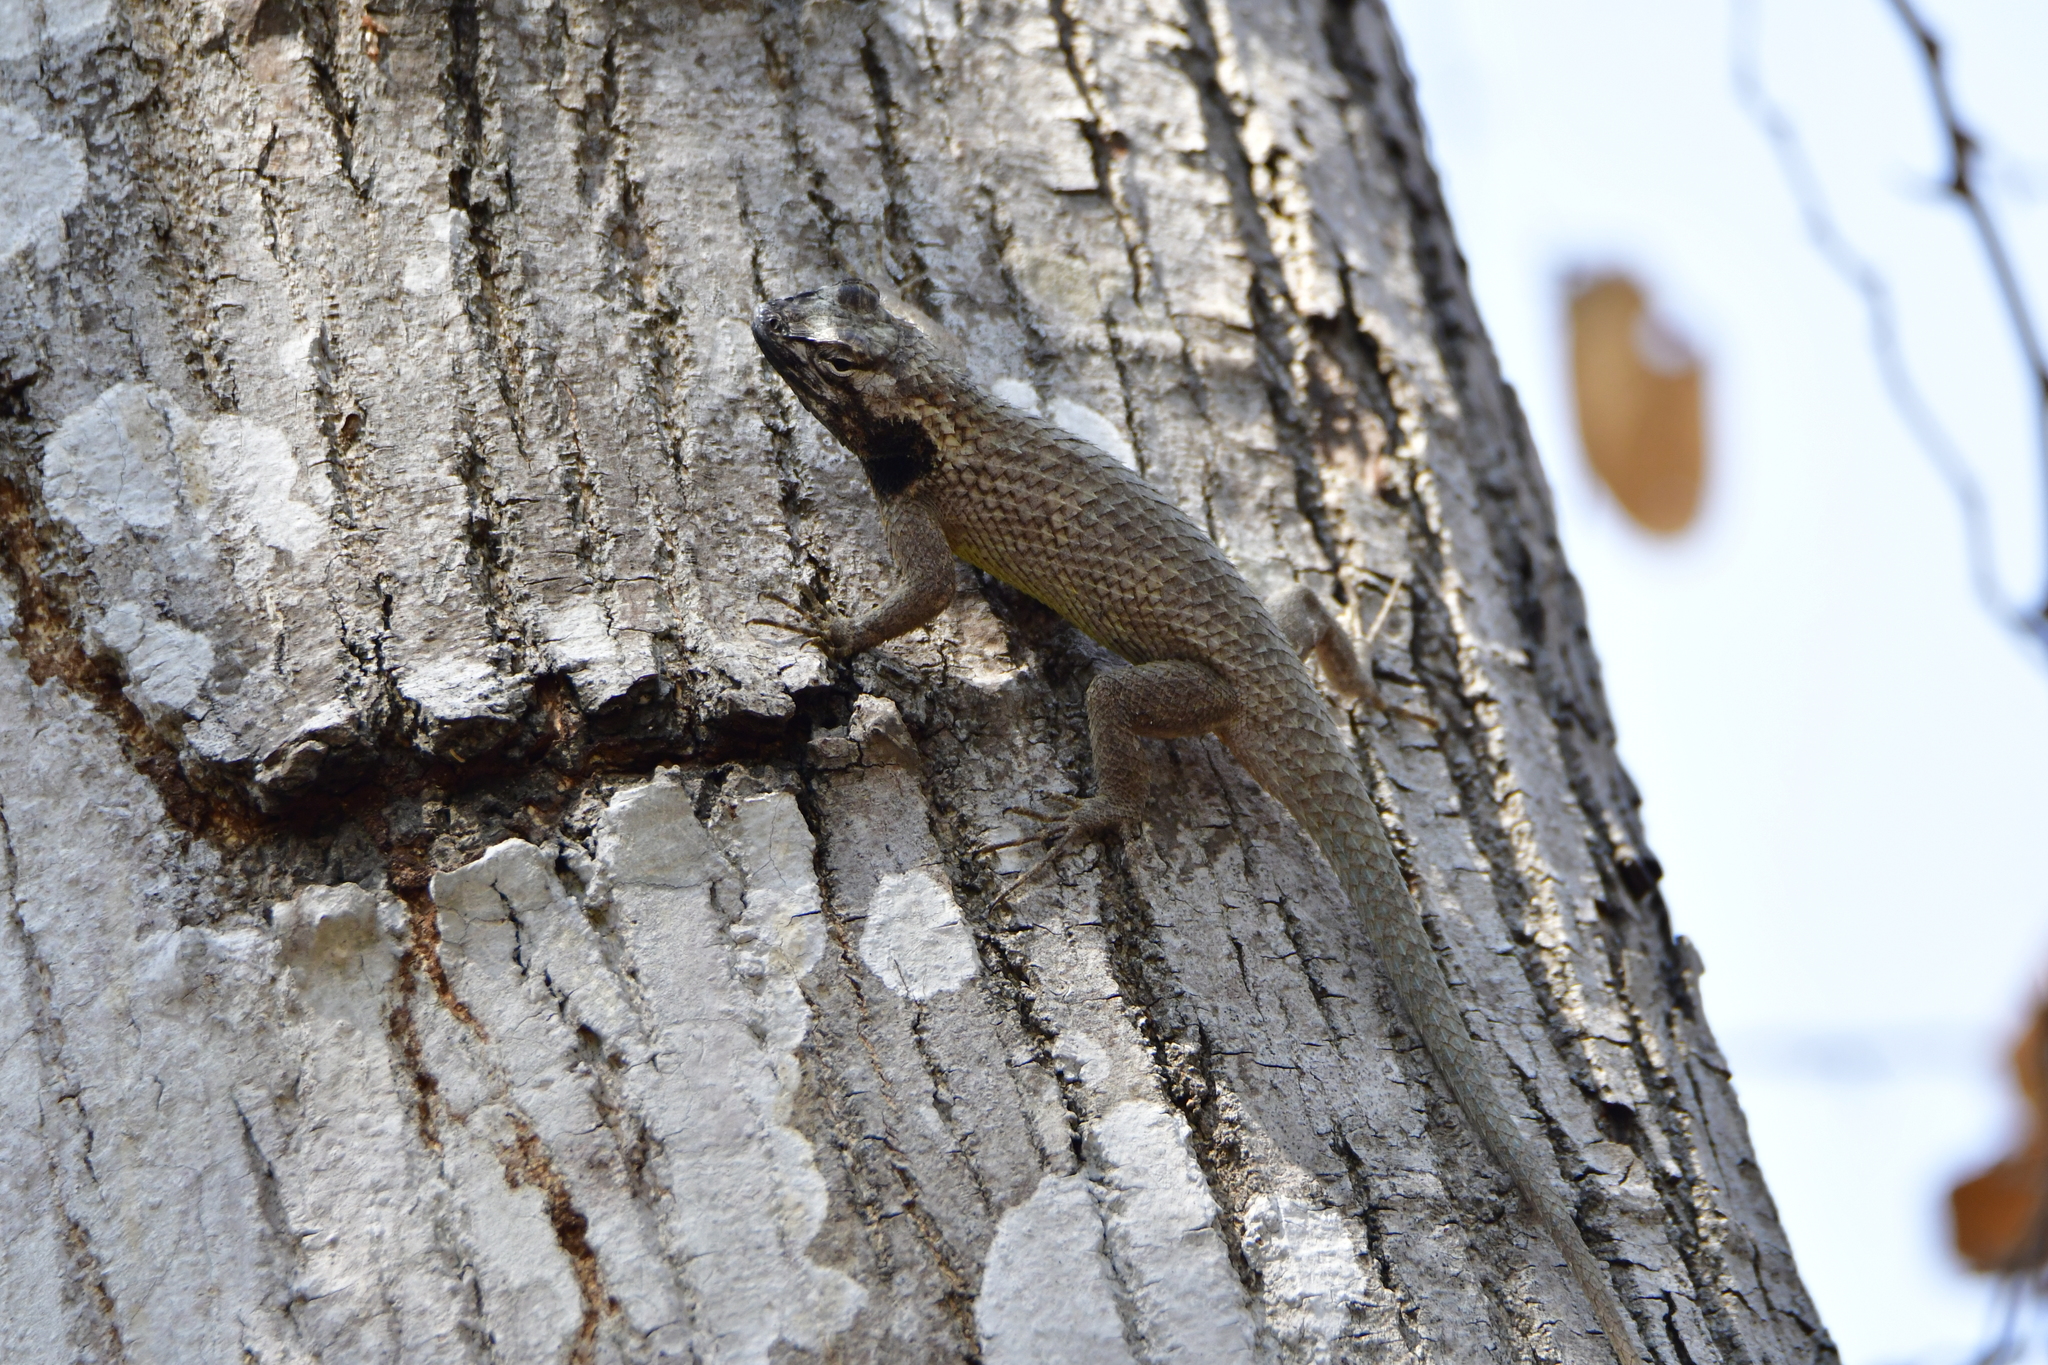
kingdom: Animalia
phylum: Chordata
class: Squamata
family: Phrynosomatidae
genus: Sceloporus
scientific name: Sceloporus melanorhinus
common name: Black-nosed lizard
